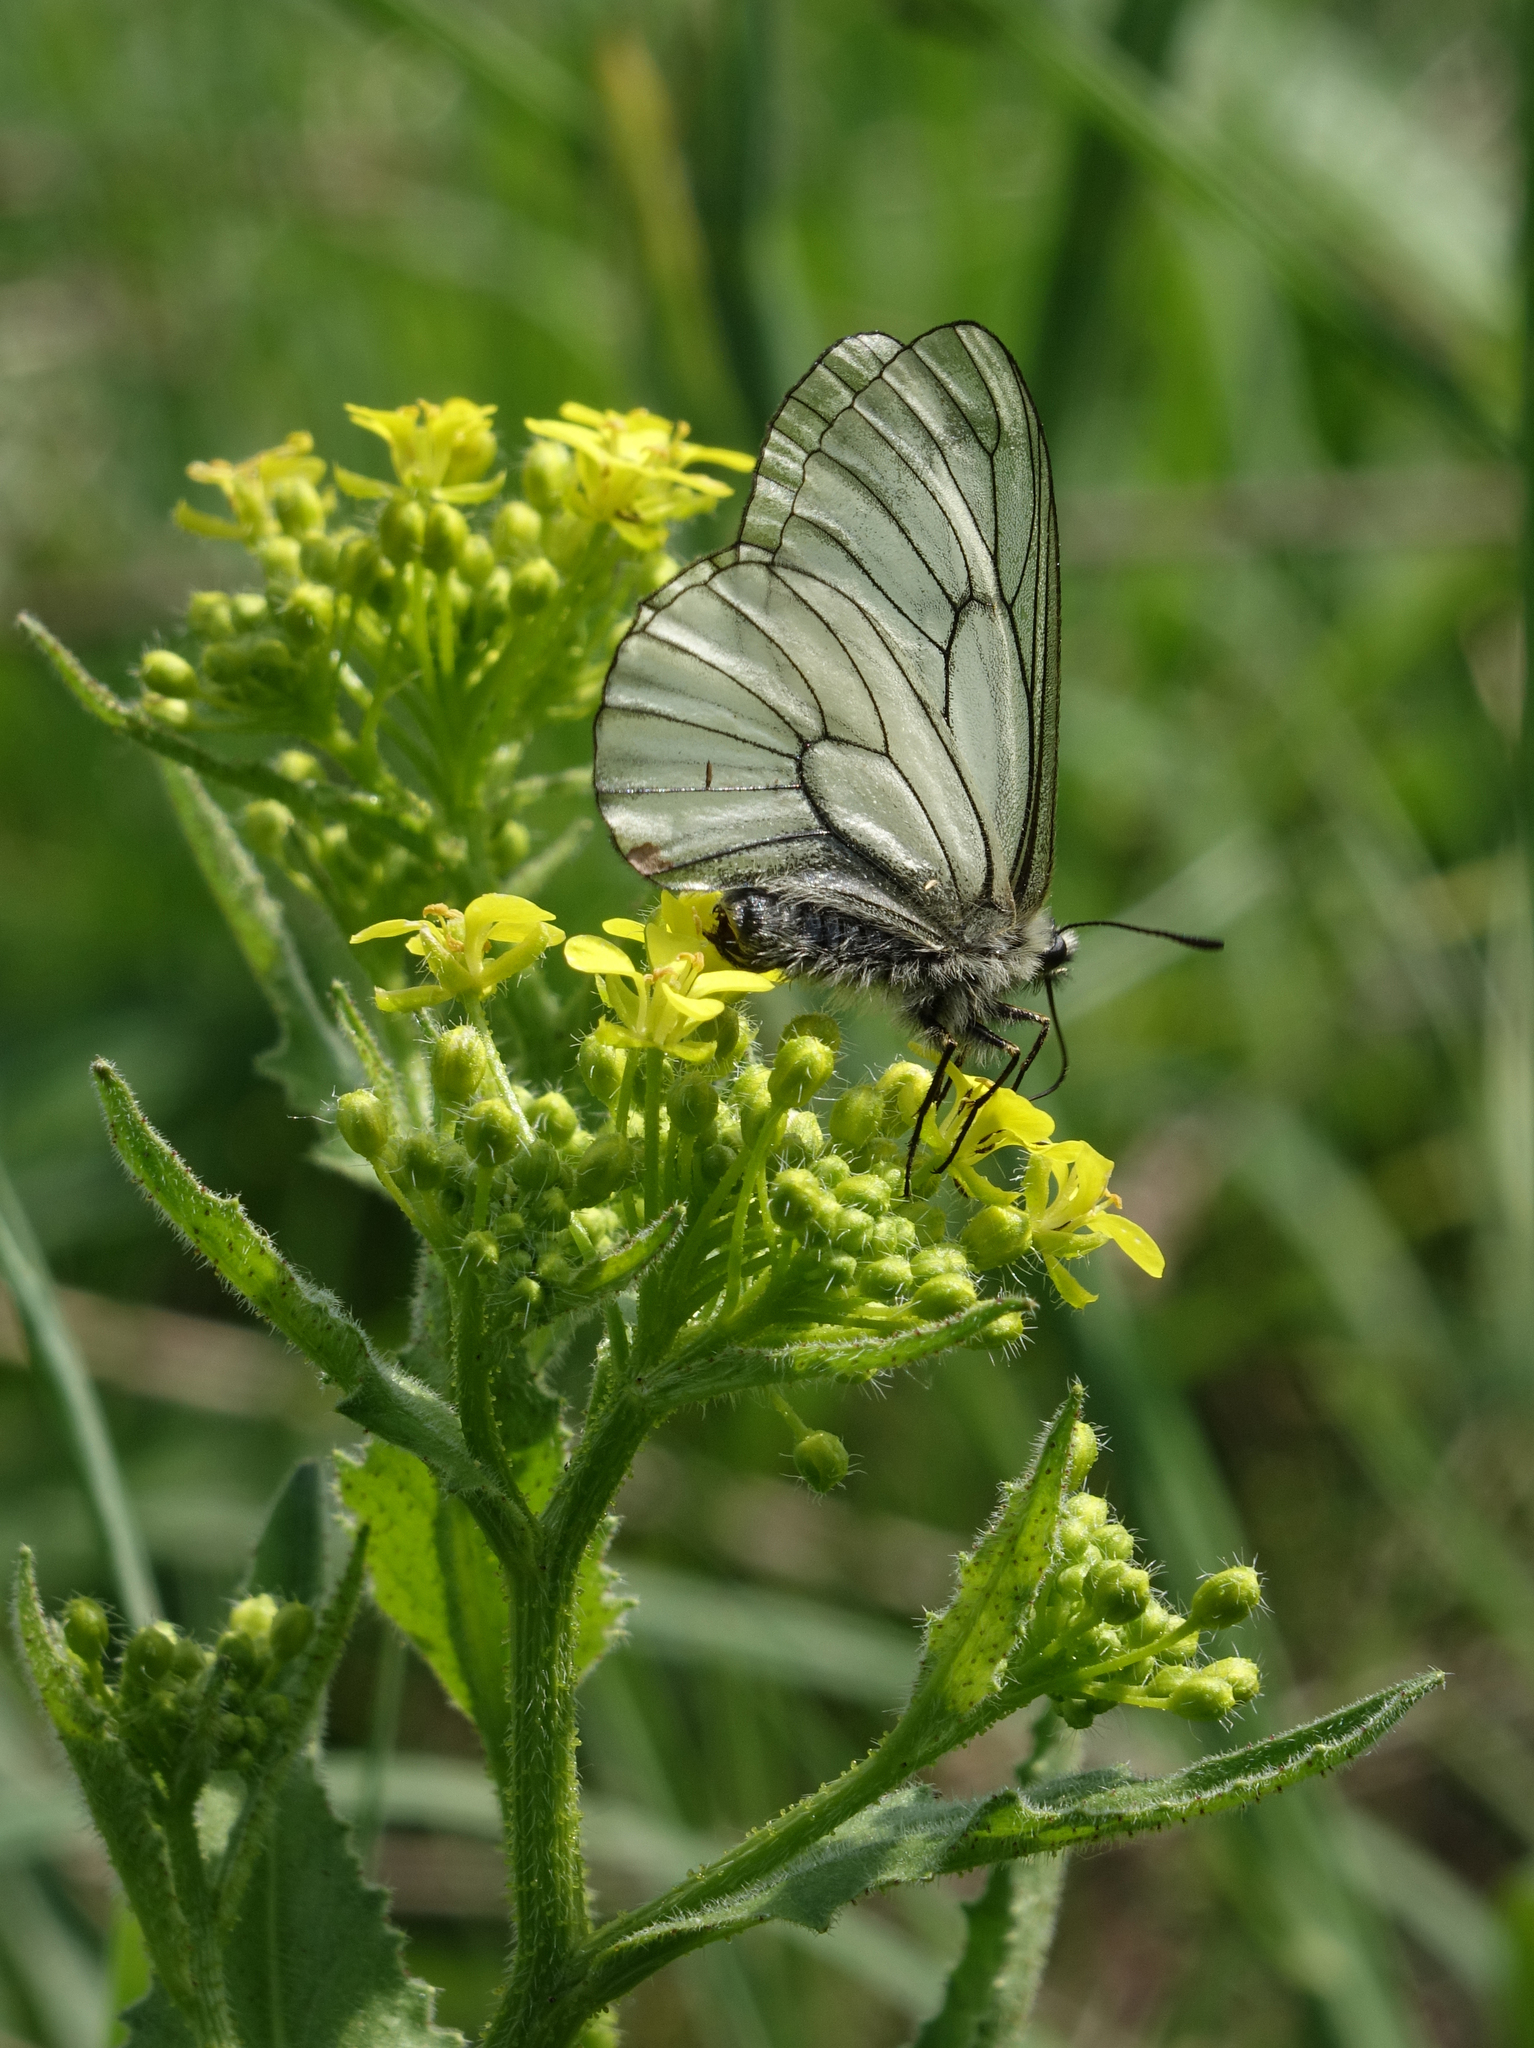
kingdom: Animalia
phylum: Arthropoda
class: Insecta
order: Lepidoptera
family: Papilionidae
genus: Parnassius
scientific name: Parnassius stubbendorfii
